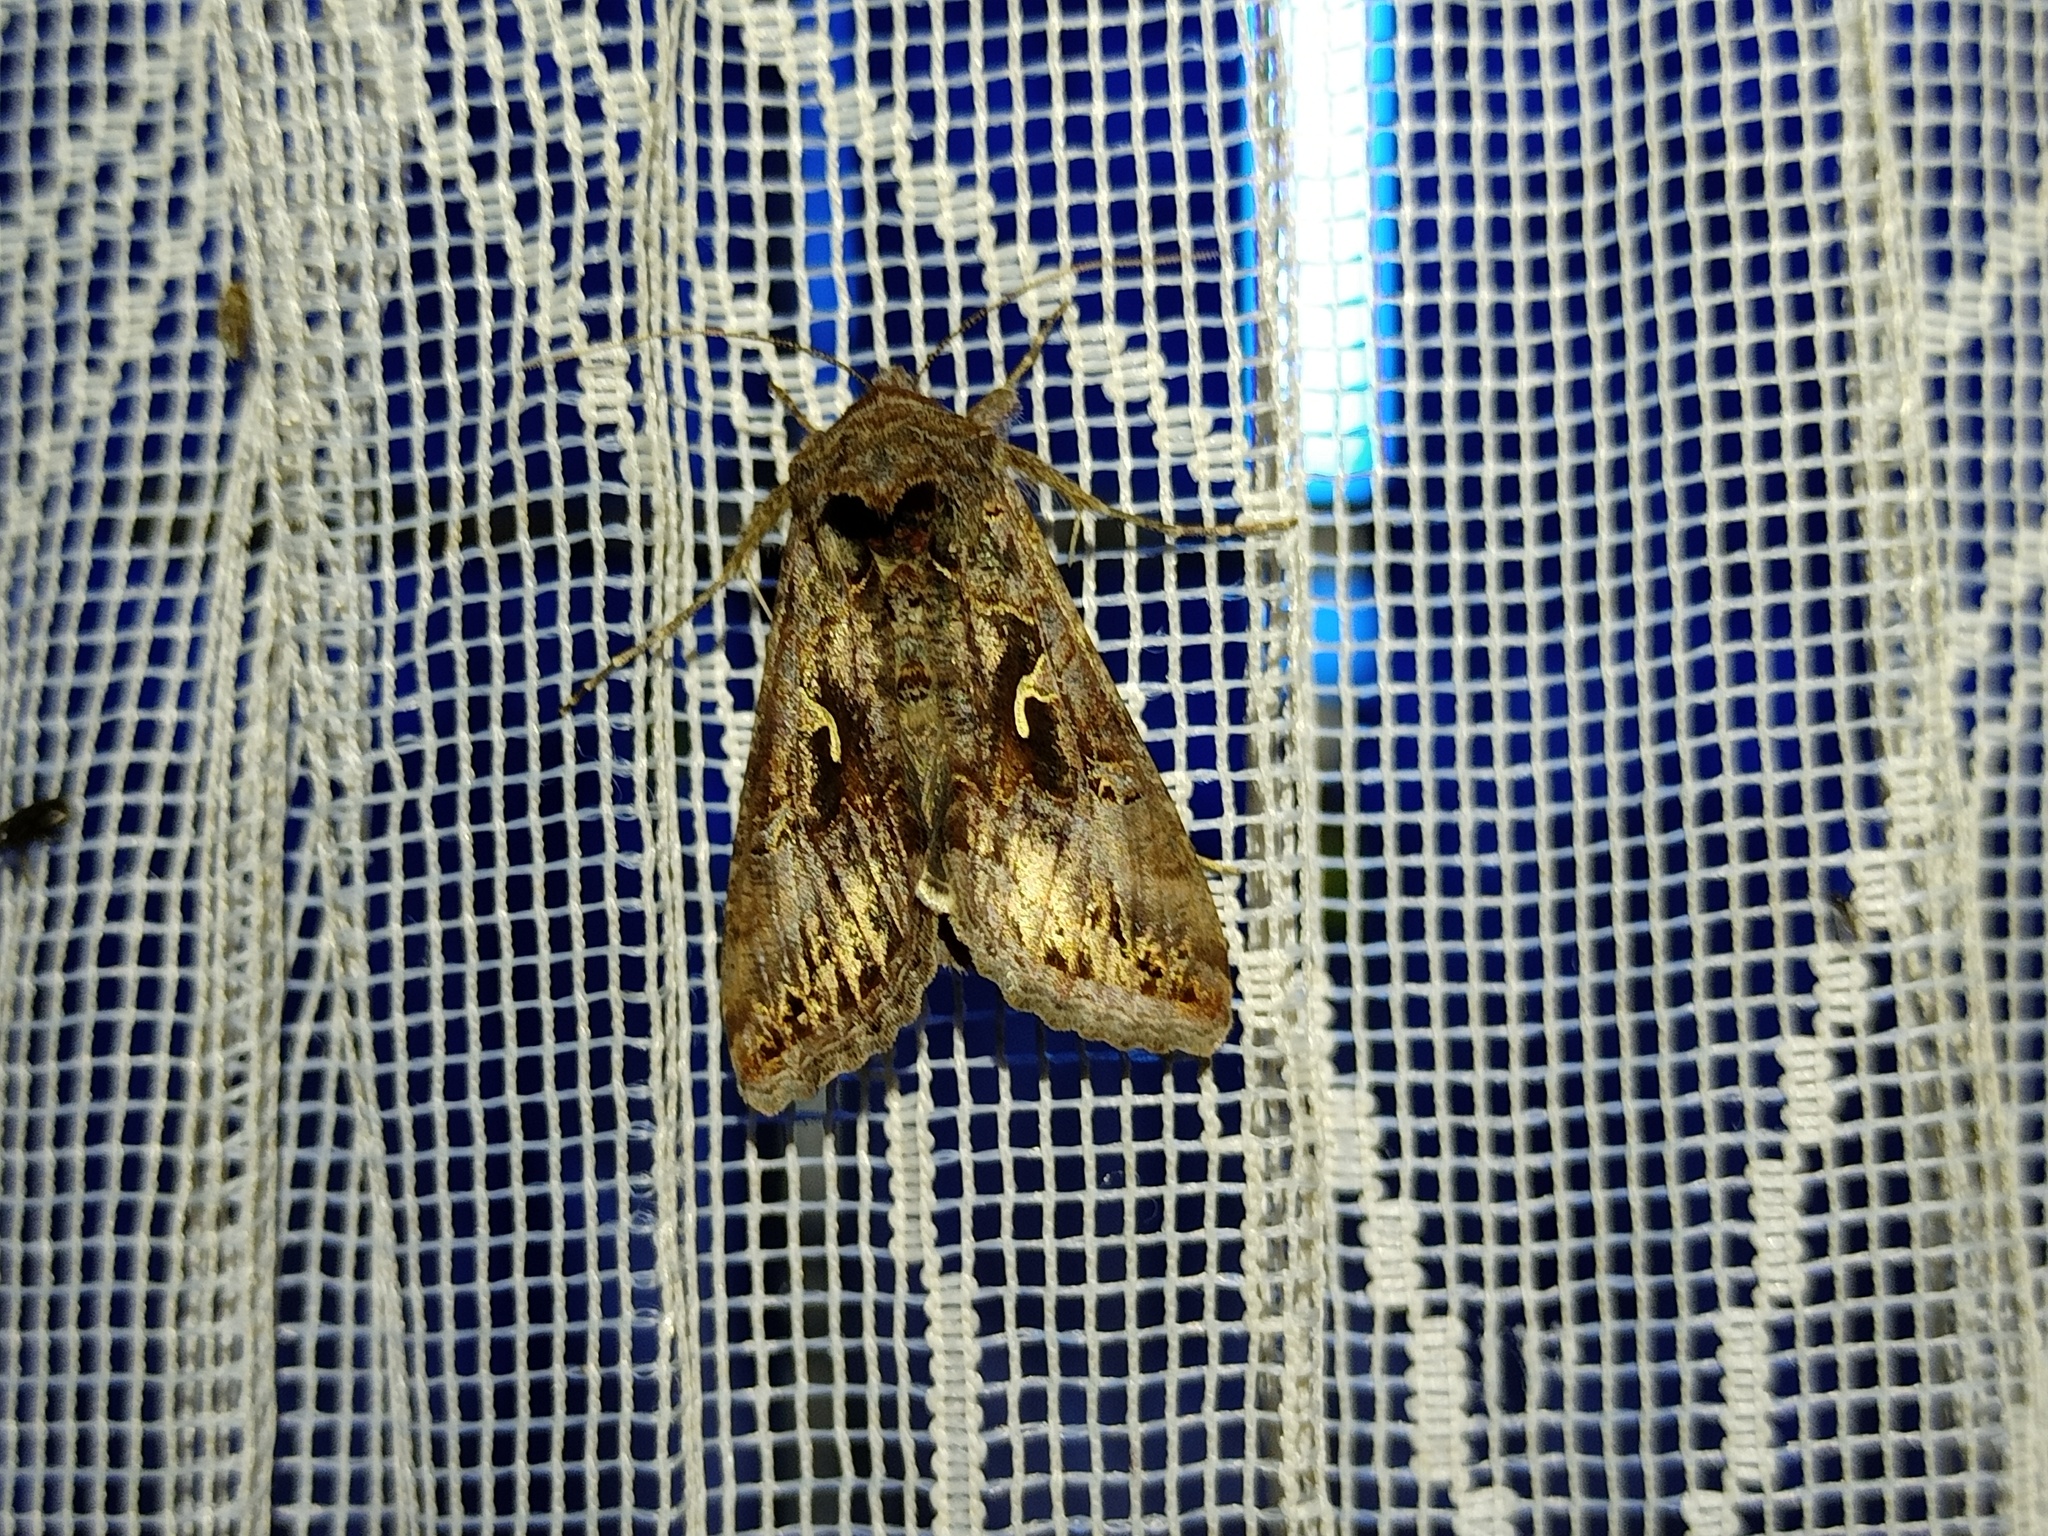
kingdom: Animalia
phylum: Arthropoda
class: Insecta
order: Lepidoptera
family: Noctuidae
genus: Autographa
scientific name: Autographa gamma
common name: Silver y
